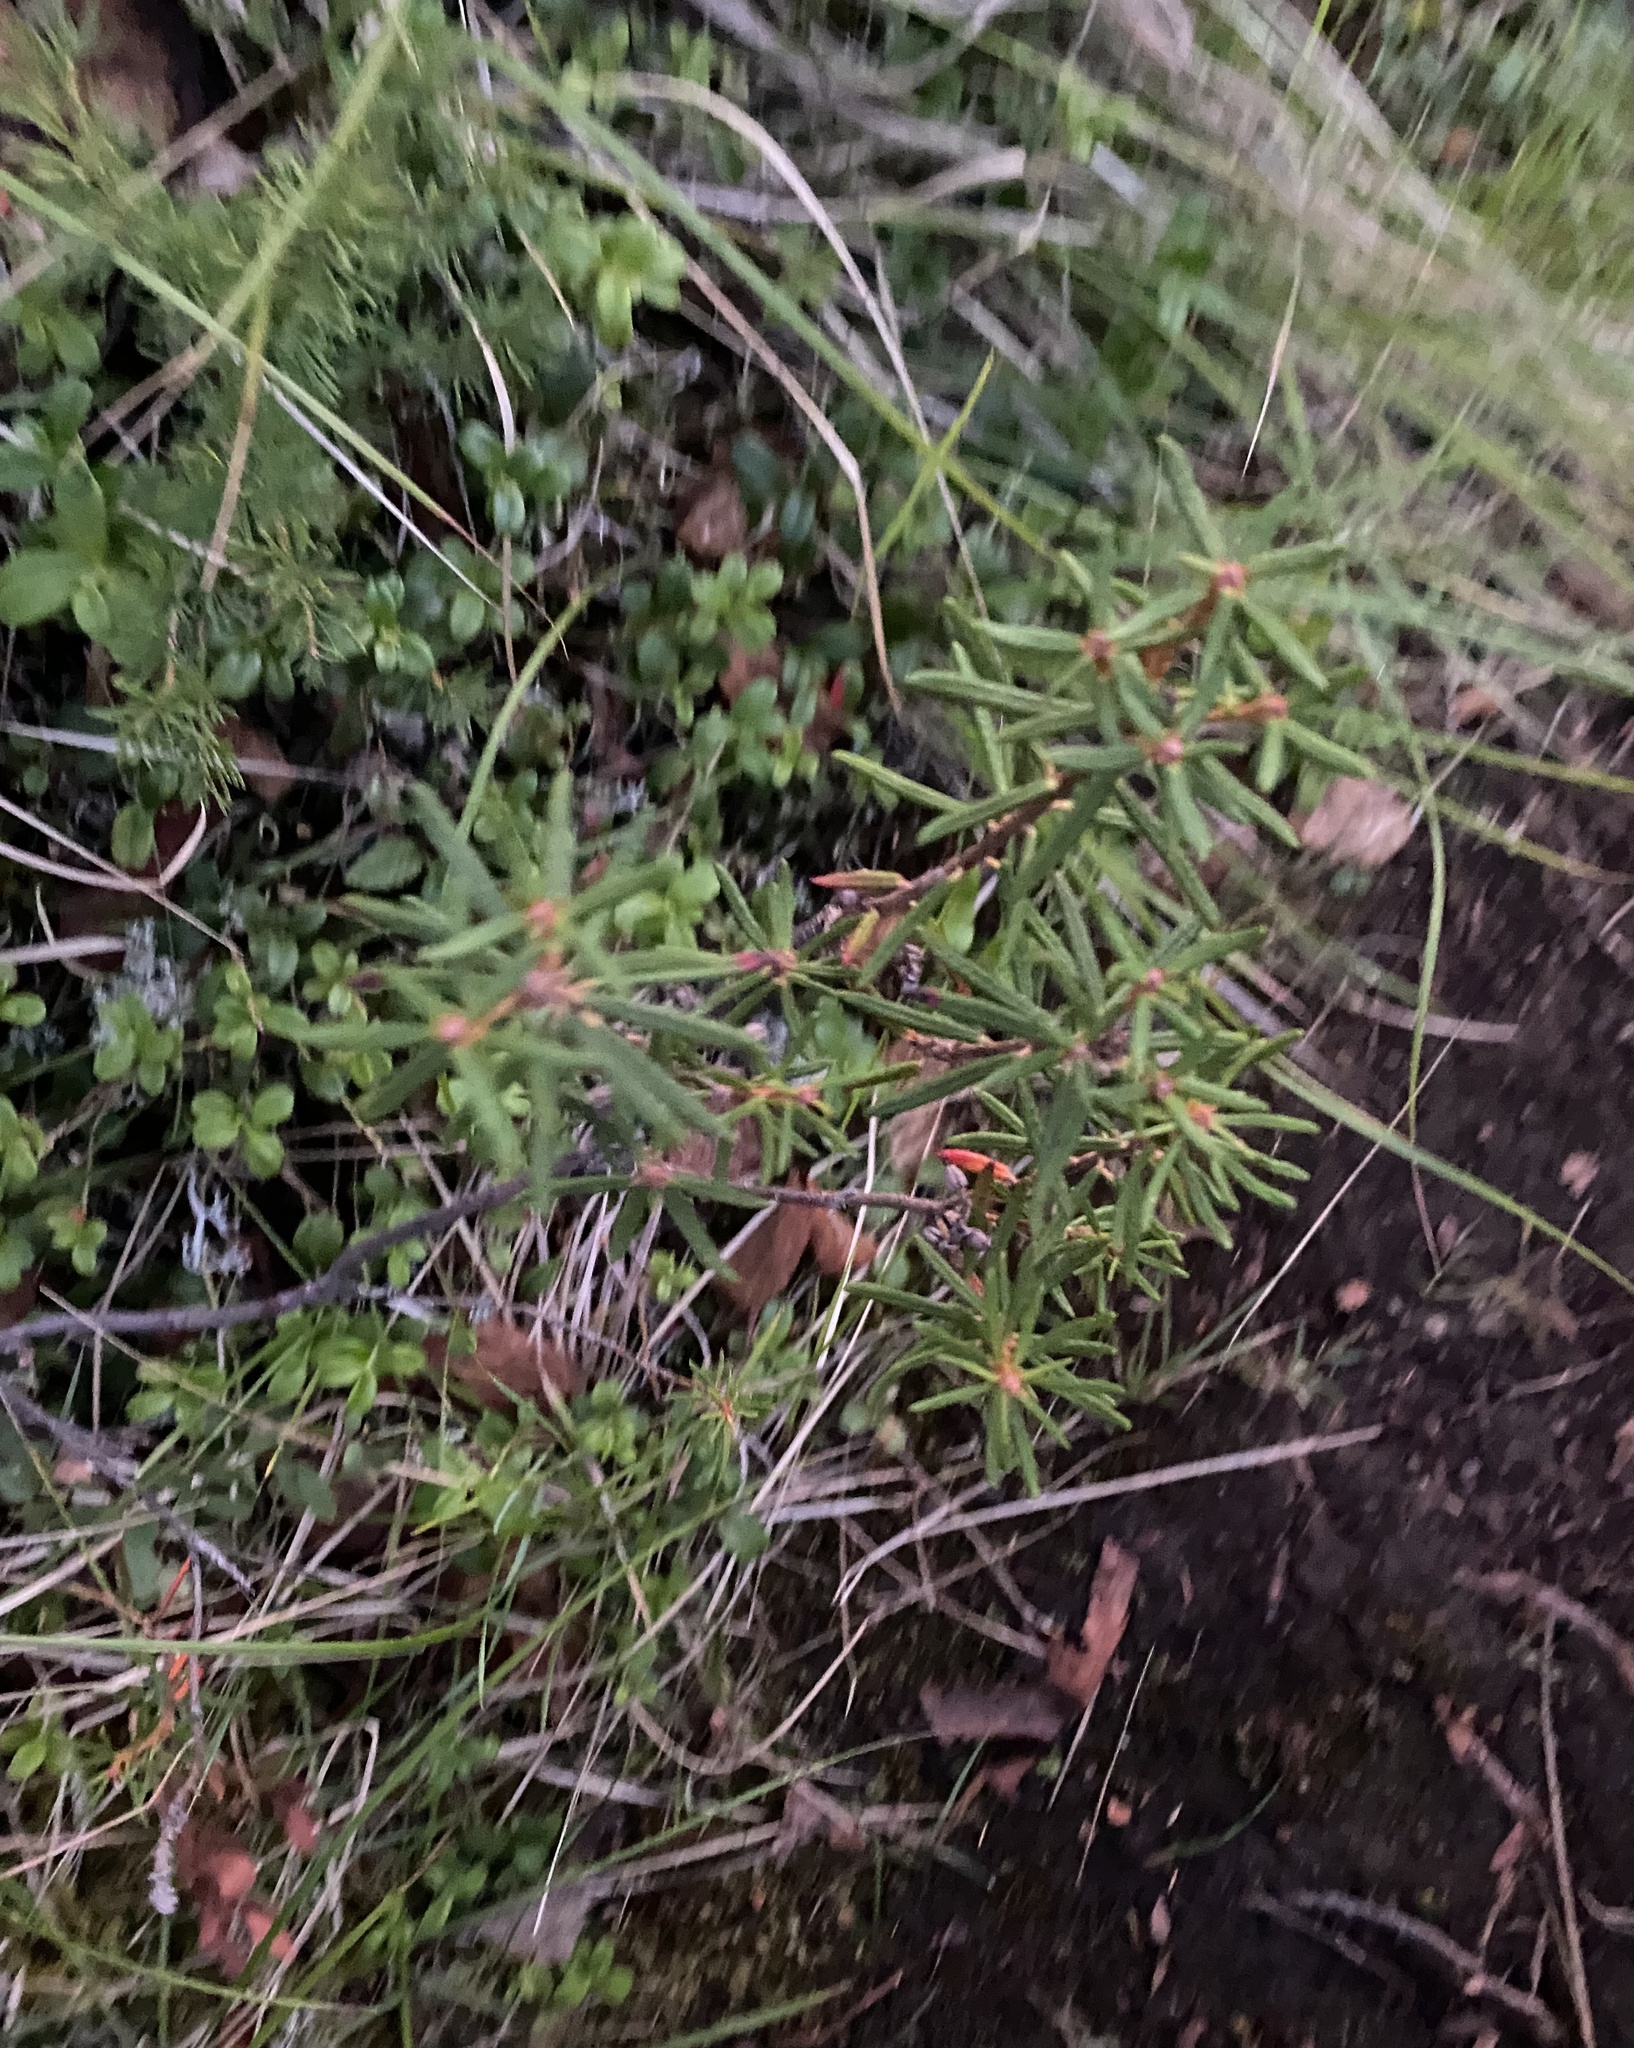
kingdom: Plantae
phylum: Tracheophyta
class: Magnoliopsida
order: Ericales
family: Ericaceae
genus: Rhododendron
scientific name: Rhododendron tomentosum
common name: Marsh labrador tea
